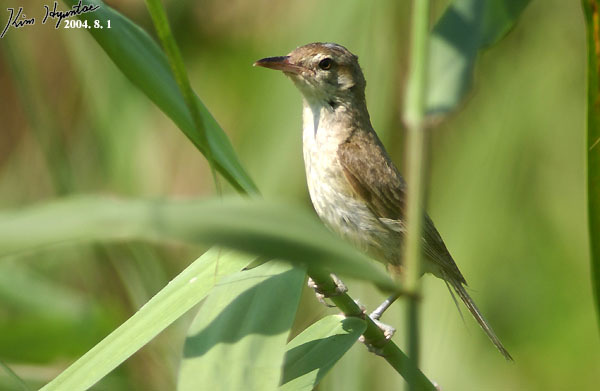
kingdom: Animalia
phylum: Chordata
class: Aves
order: Passeriformes
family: Acrocephalidae
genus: Acrocephalus
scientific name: Acrocephalus orientalis
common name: Oriental reed warbler
